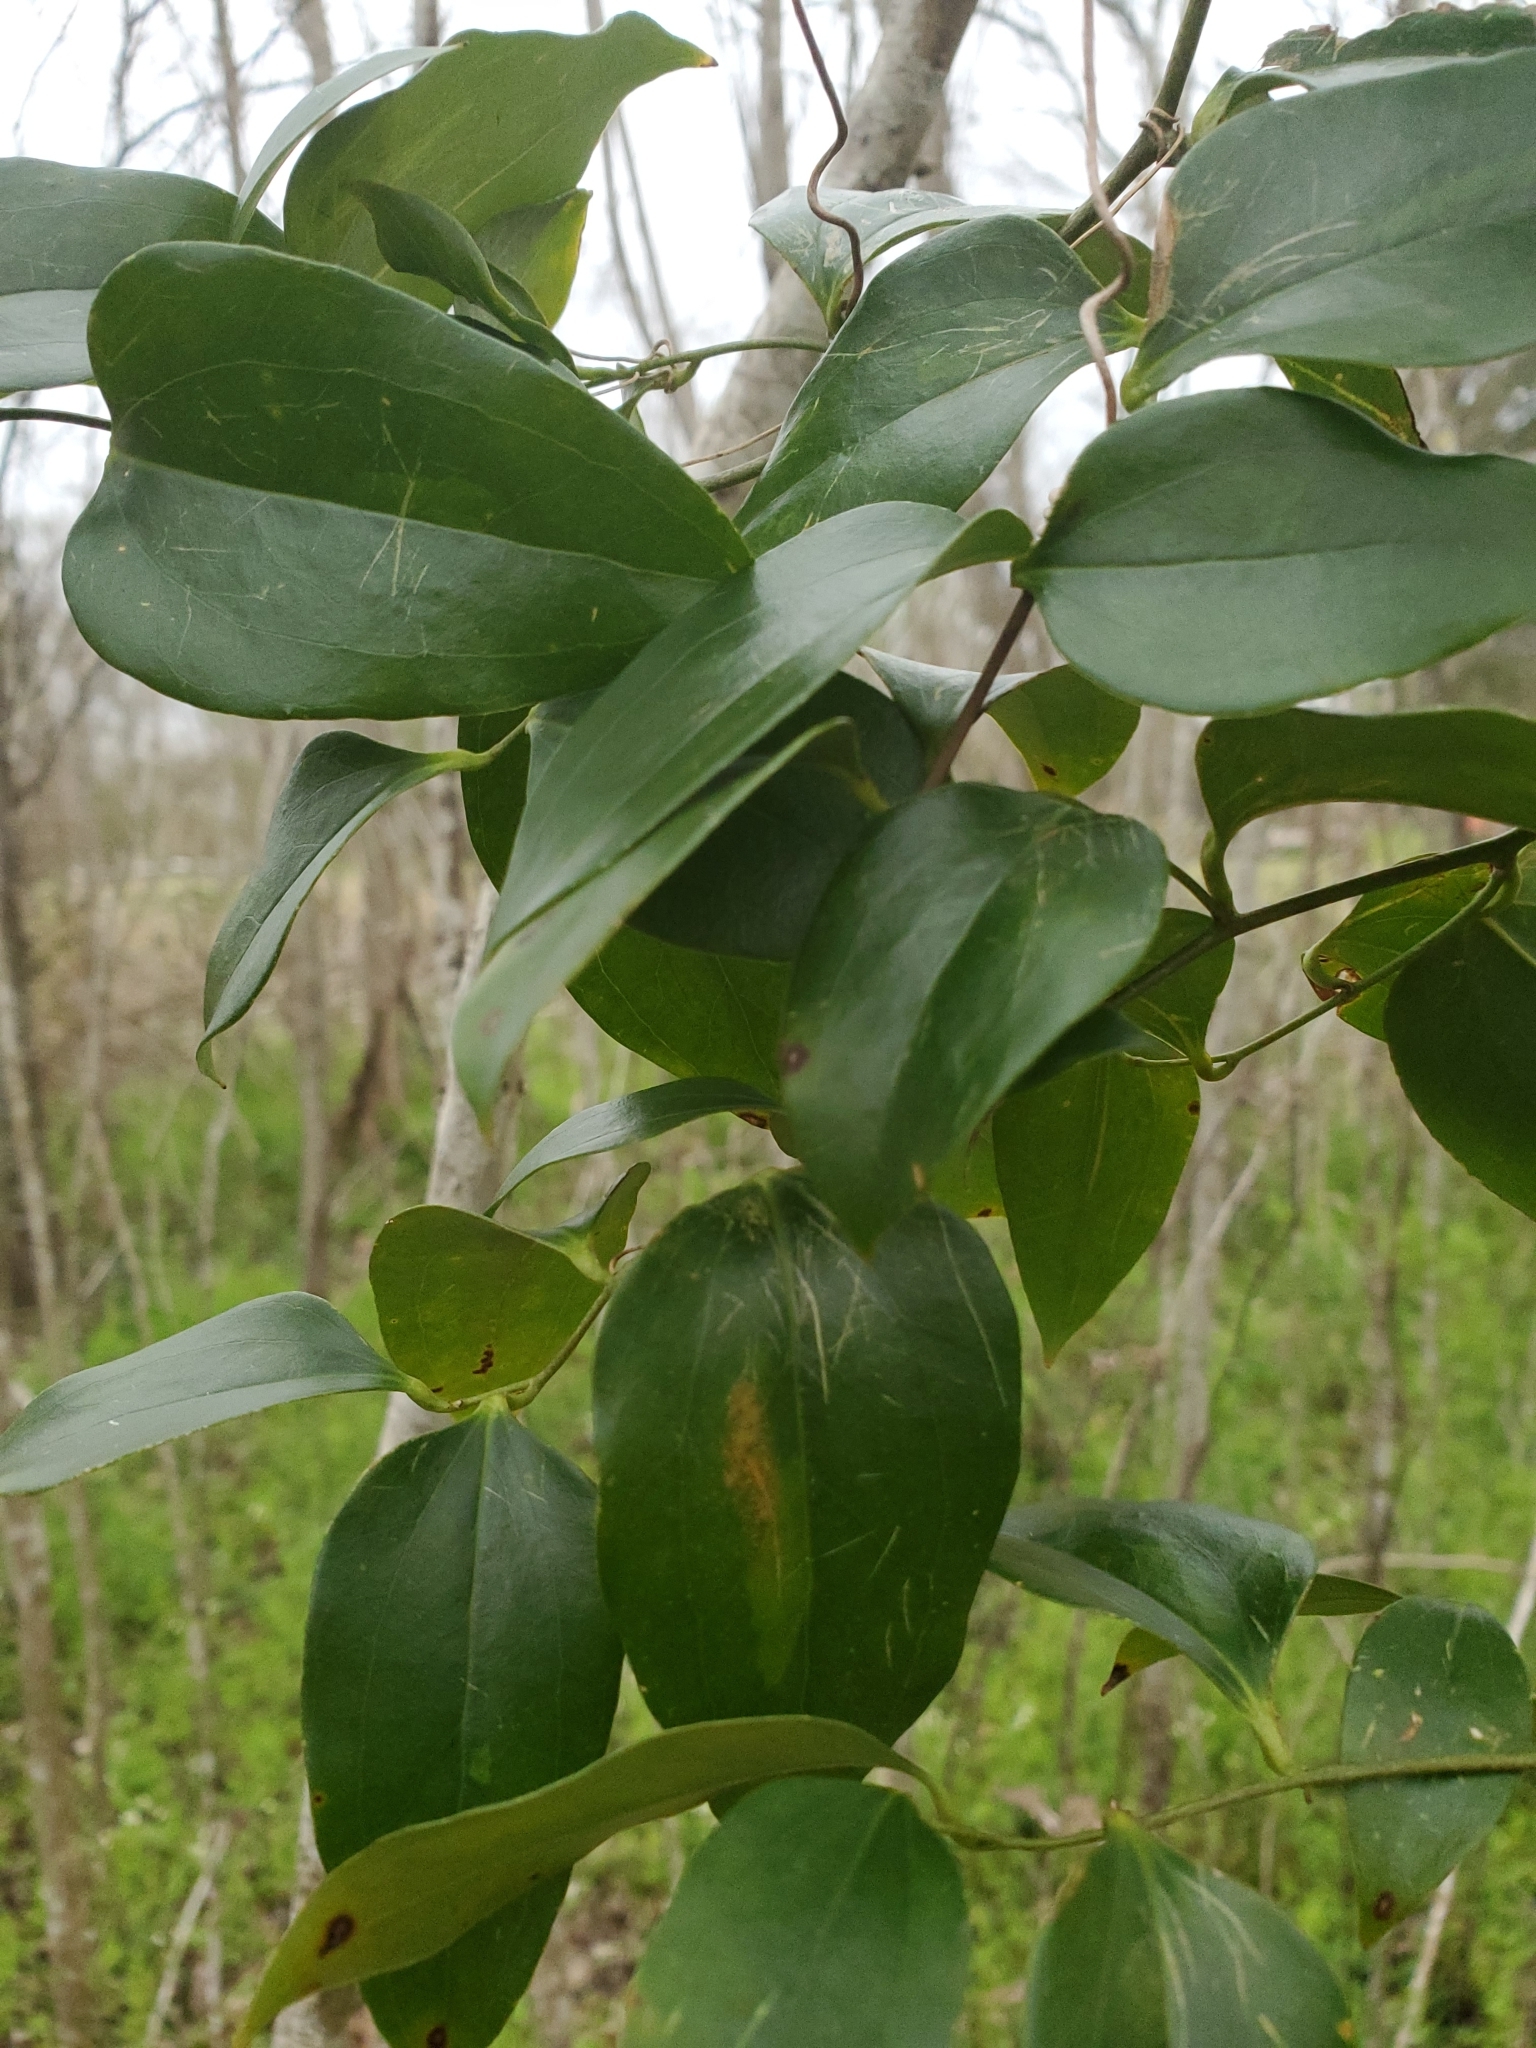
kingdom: Plantae
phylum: Tracheophyta
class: Liliopsida
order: Liliales
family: Smilacaceae
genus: Smilax
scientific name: Smilax maritima
